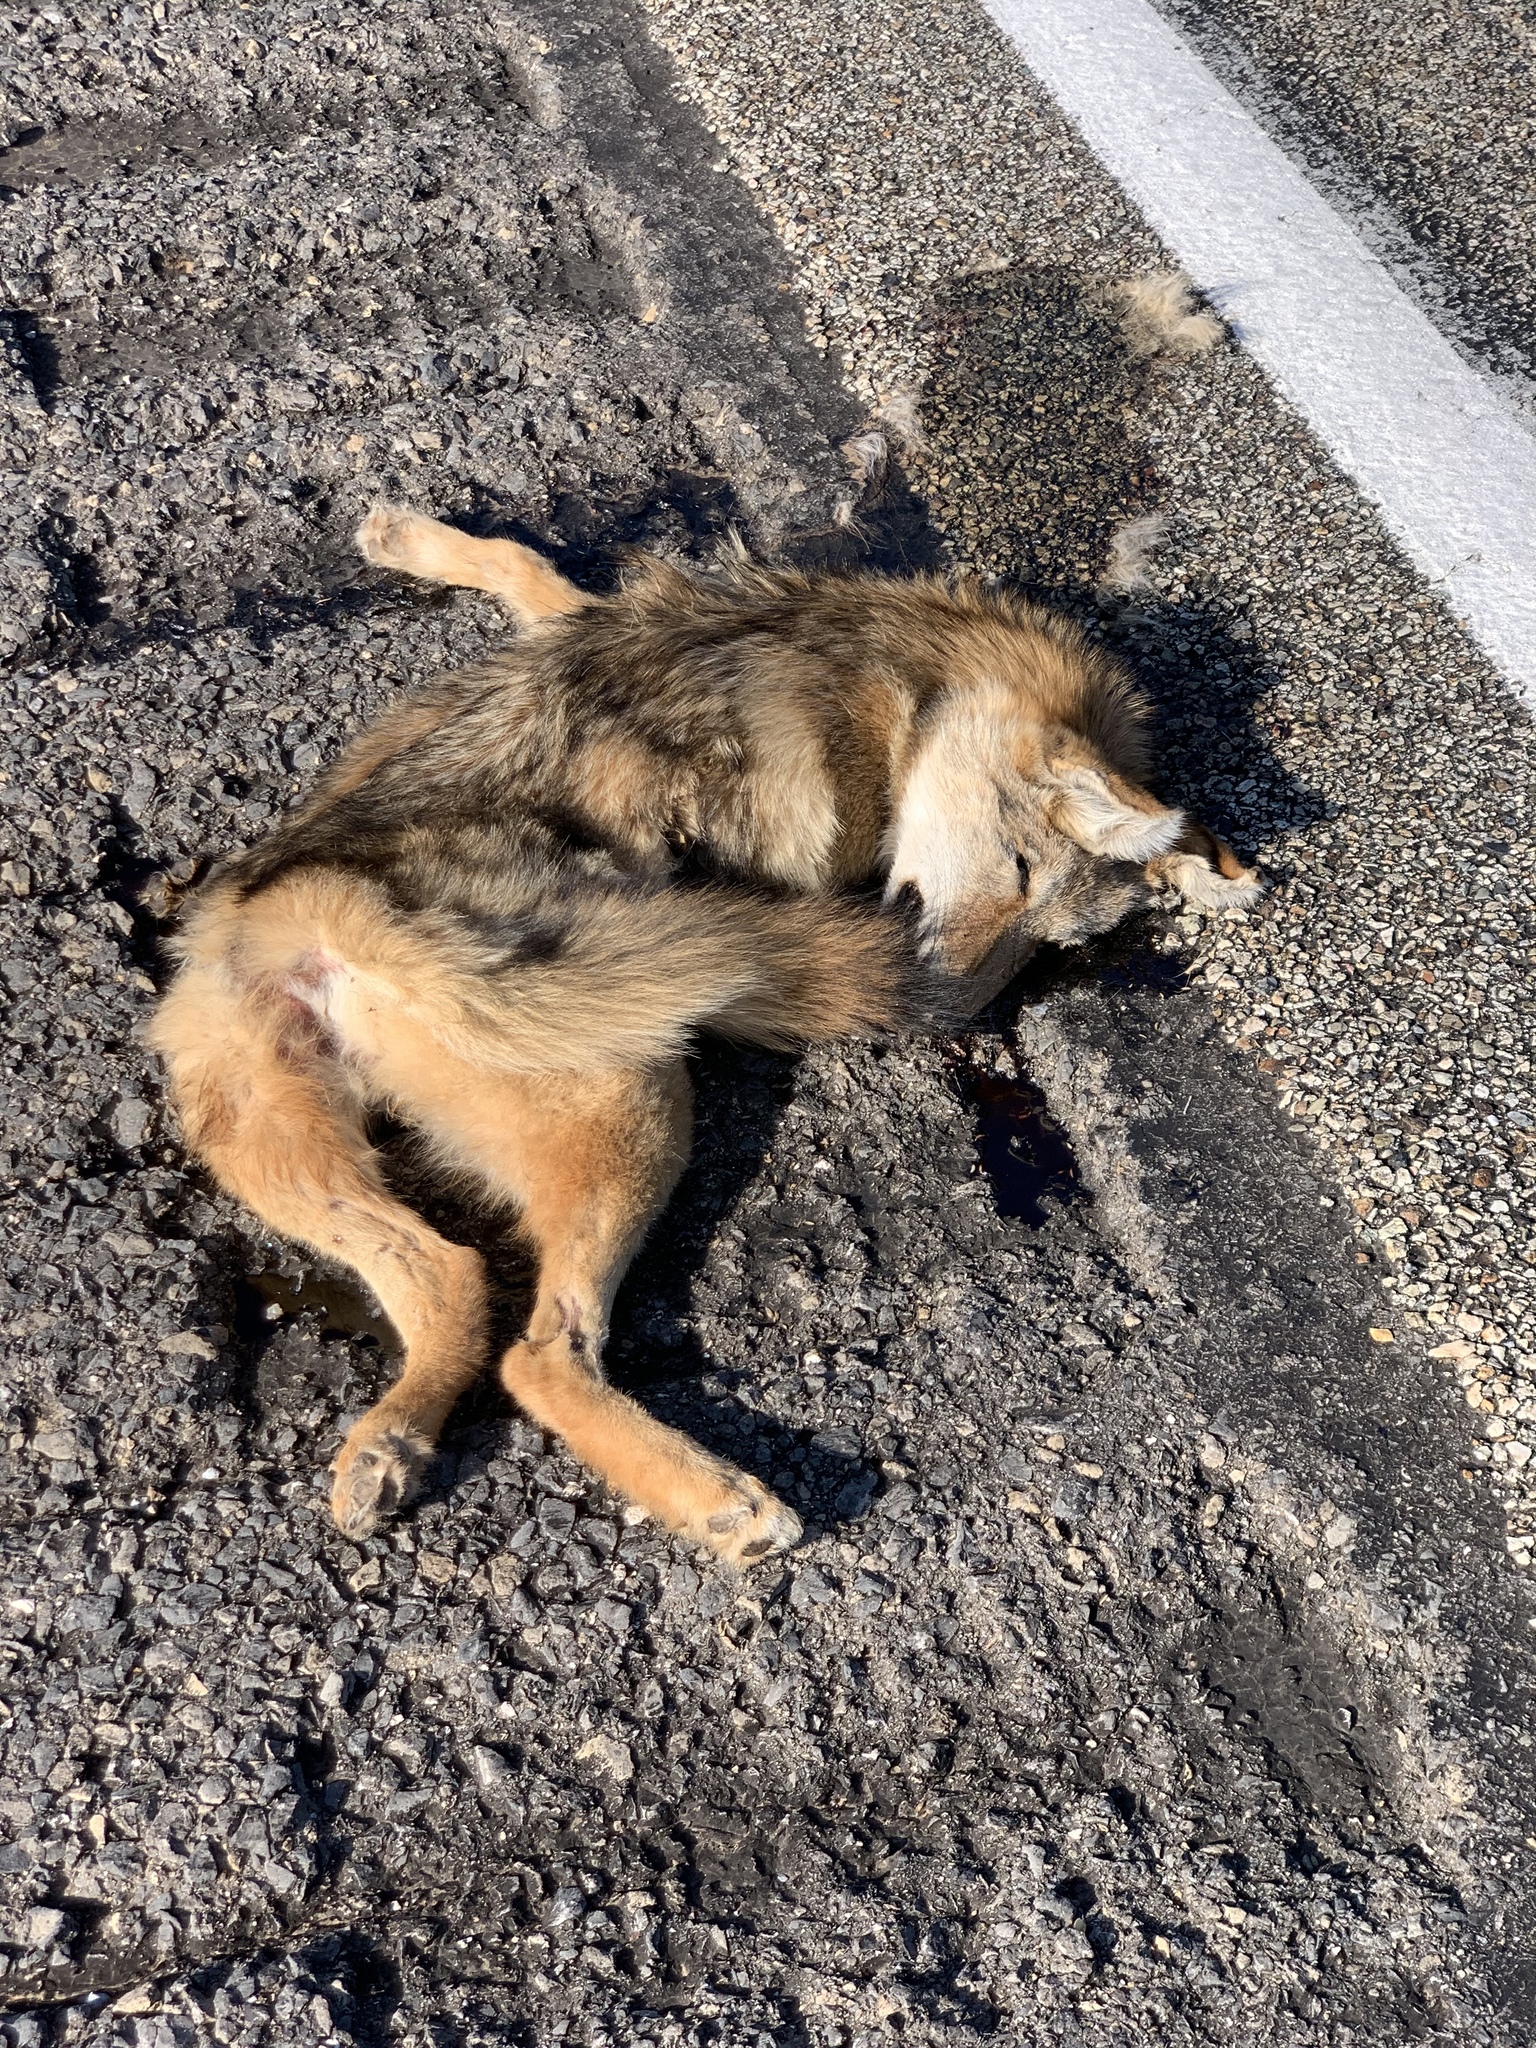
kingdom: Animalia
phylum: Chordata
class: Mammalia
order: Carnivora
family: Canidae
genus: Canis
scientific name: Canis latrans
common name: Coyote
